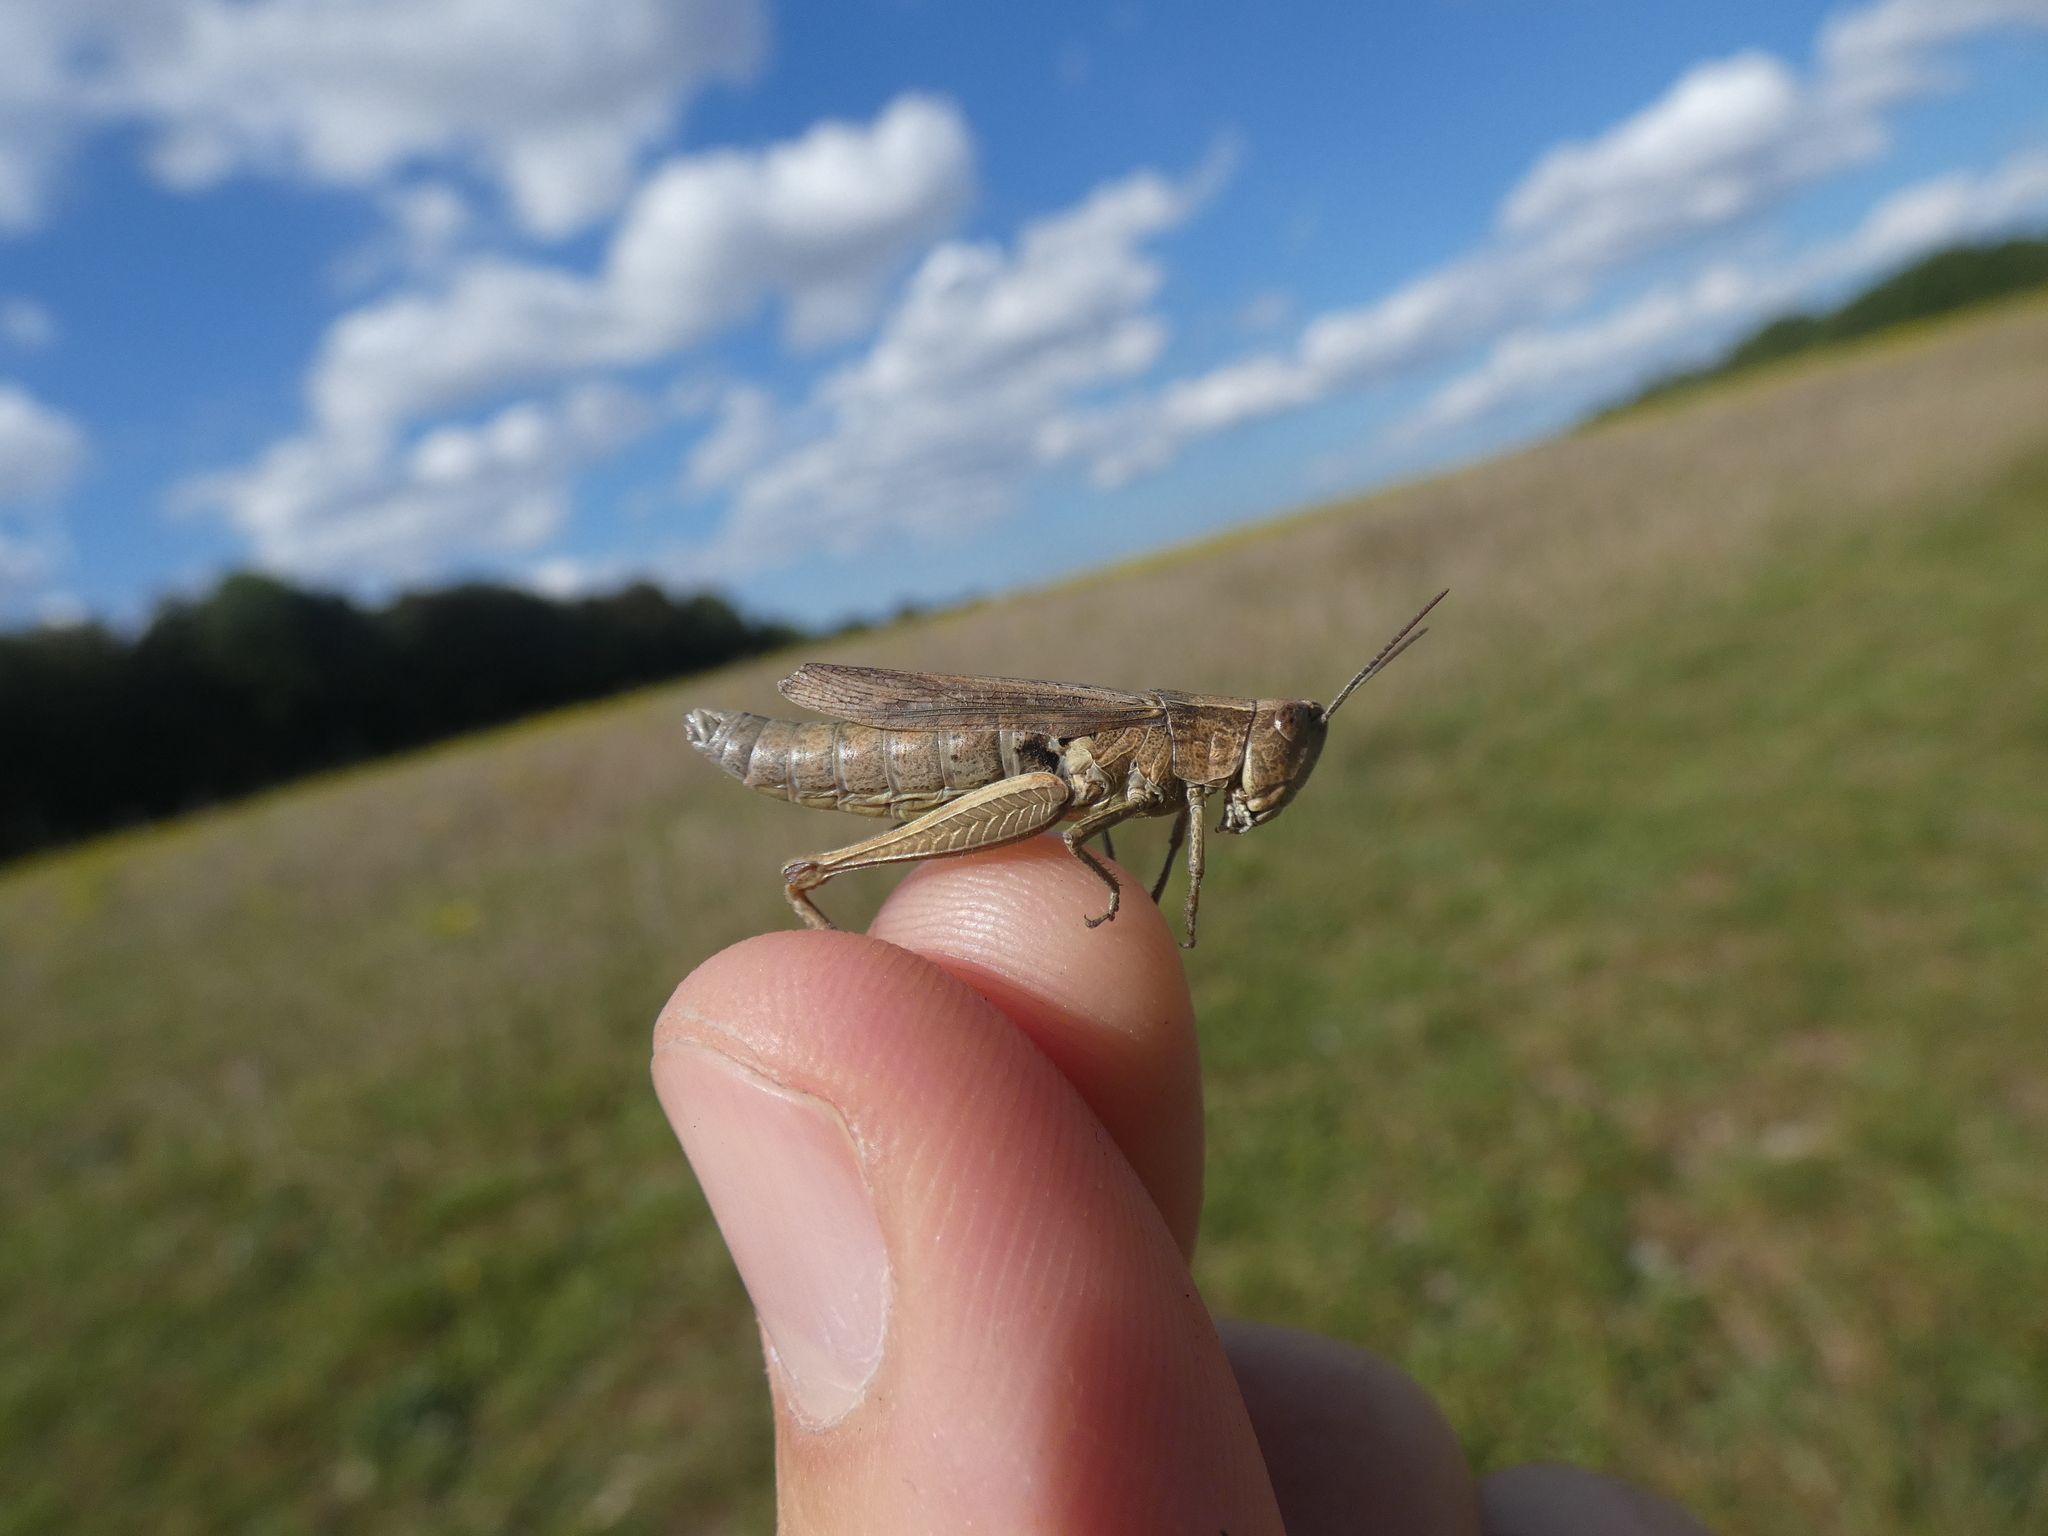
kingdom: Animalia
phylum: Arthropoda
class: Insecta
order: Orthoptera
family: Acrididae
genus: Chorthippus
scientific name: Chorthippus dorsatus
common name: Steppe grasshopper
